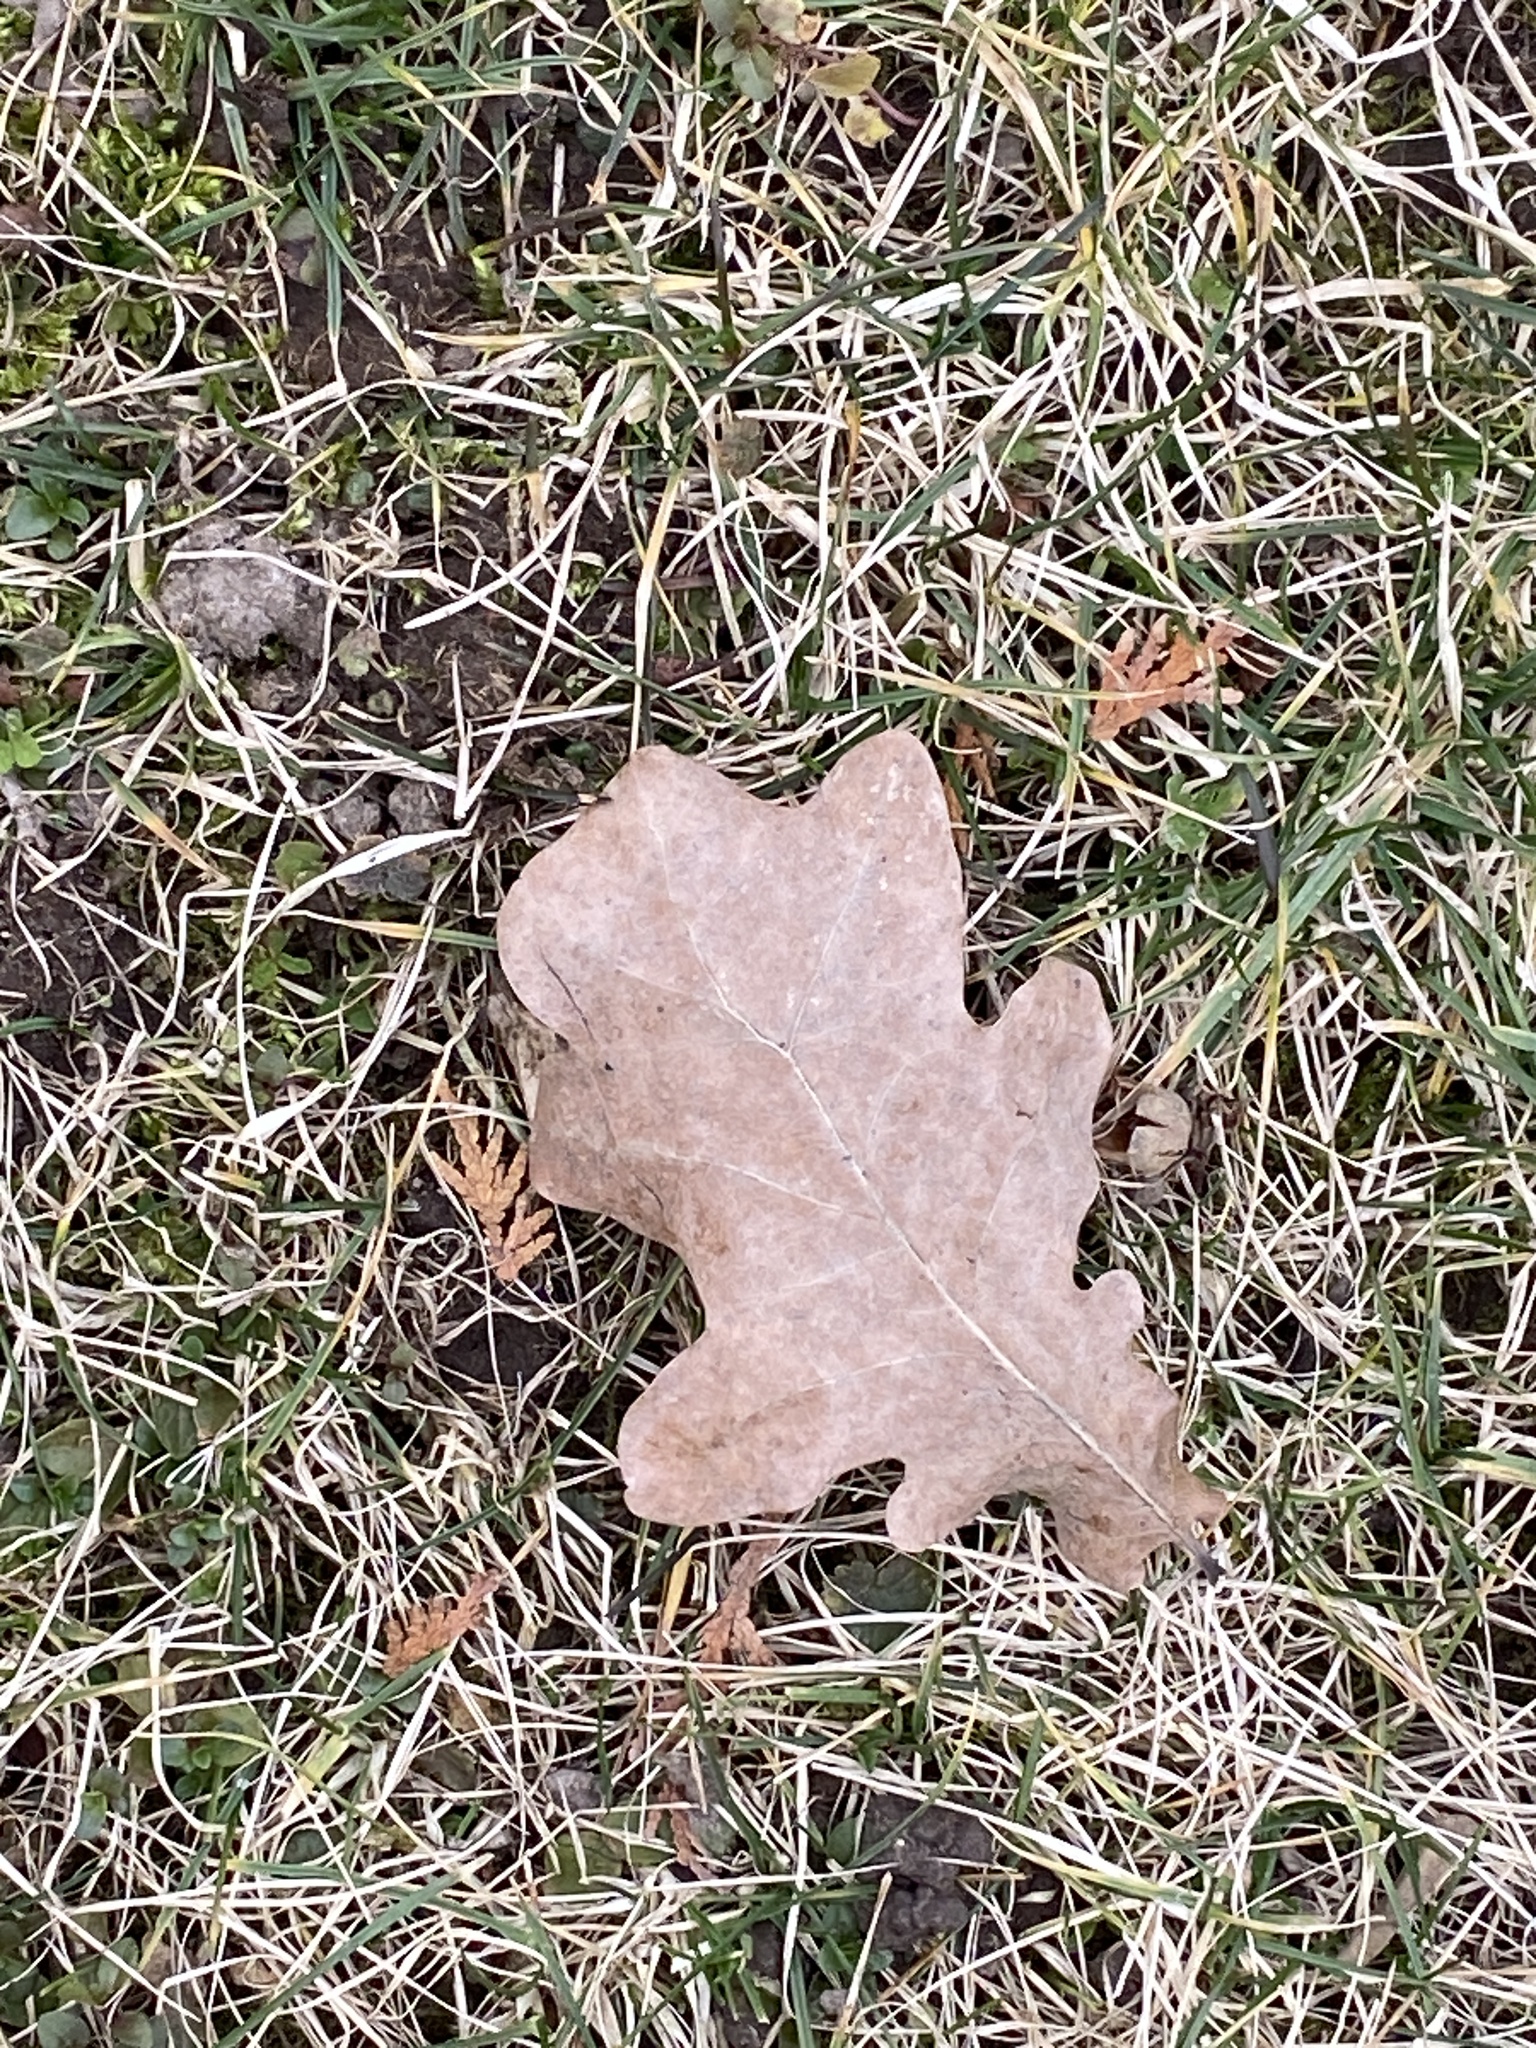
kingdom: Plantae
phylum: Tracheophyta
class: Magnoliopsida
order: Fagales
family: Fagaceae
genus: Quercus
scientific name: Quercus robur
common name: Pedunculate oak
